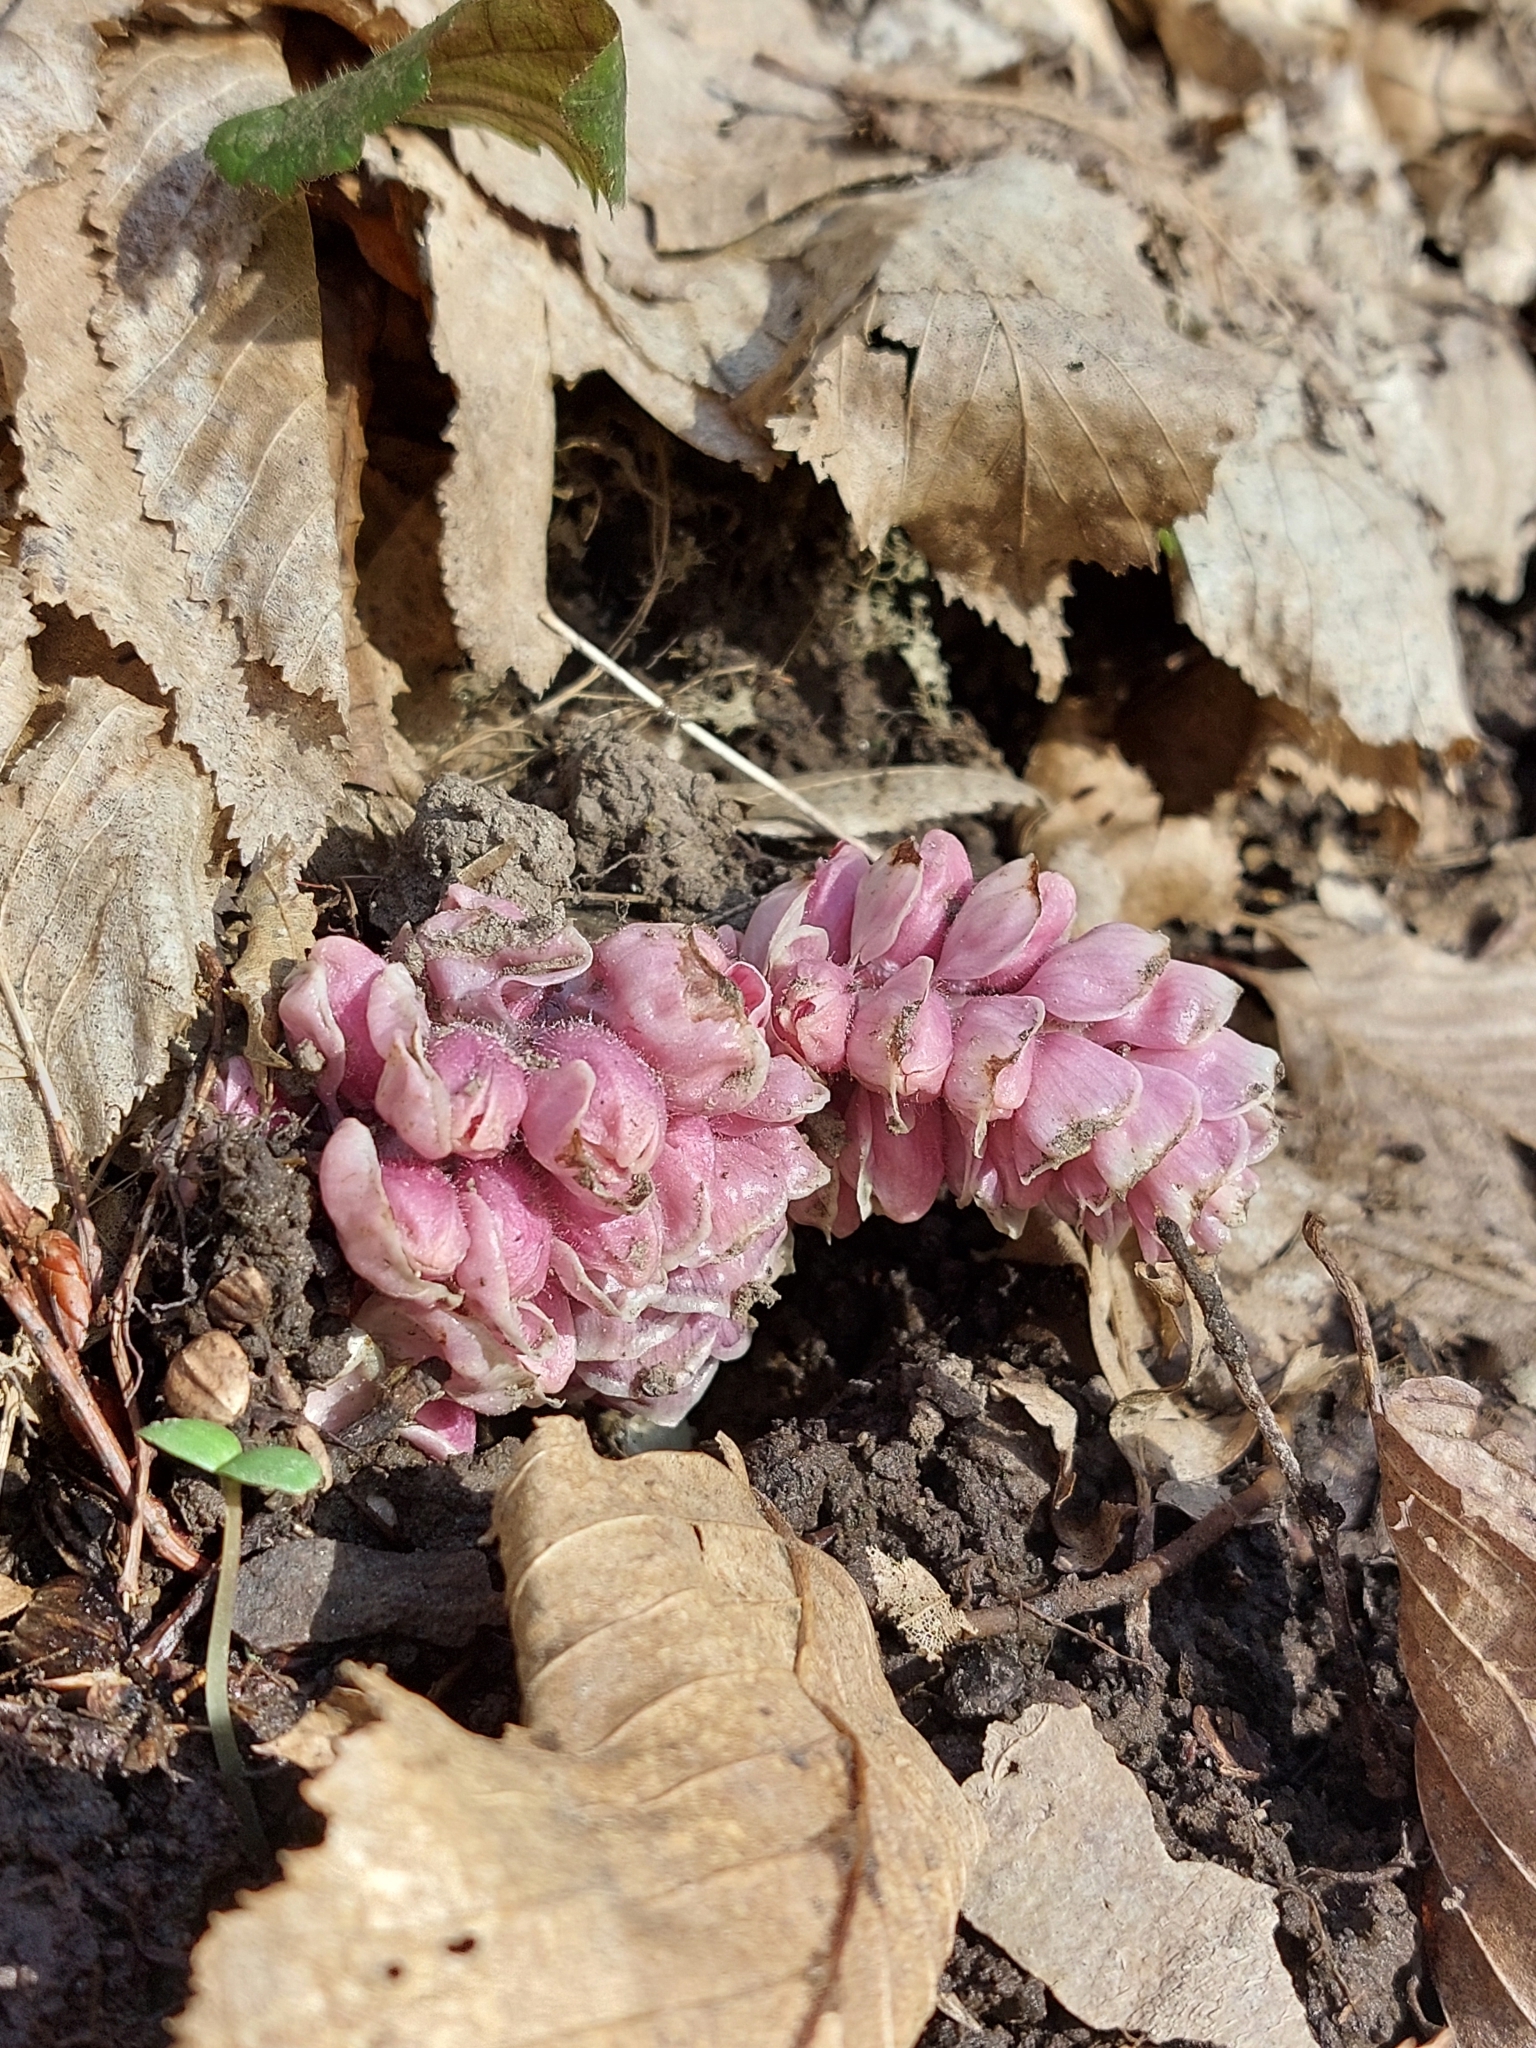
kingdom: Plantae
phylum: Tracheophyta
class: Magnoliopsida
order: Lamiales
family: Orobanchaceae
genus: Lathraea
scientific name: Lathraea squamaria
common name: Toothwort
